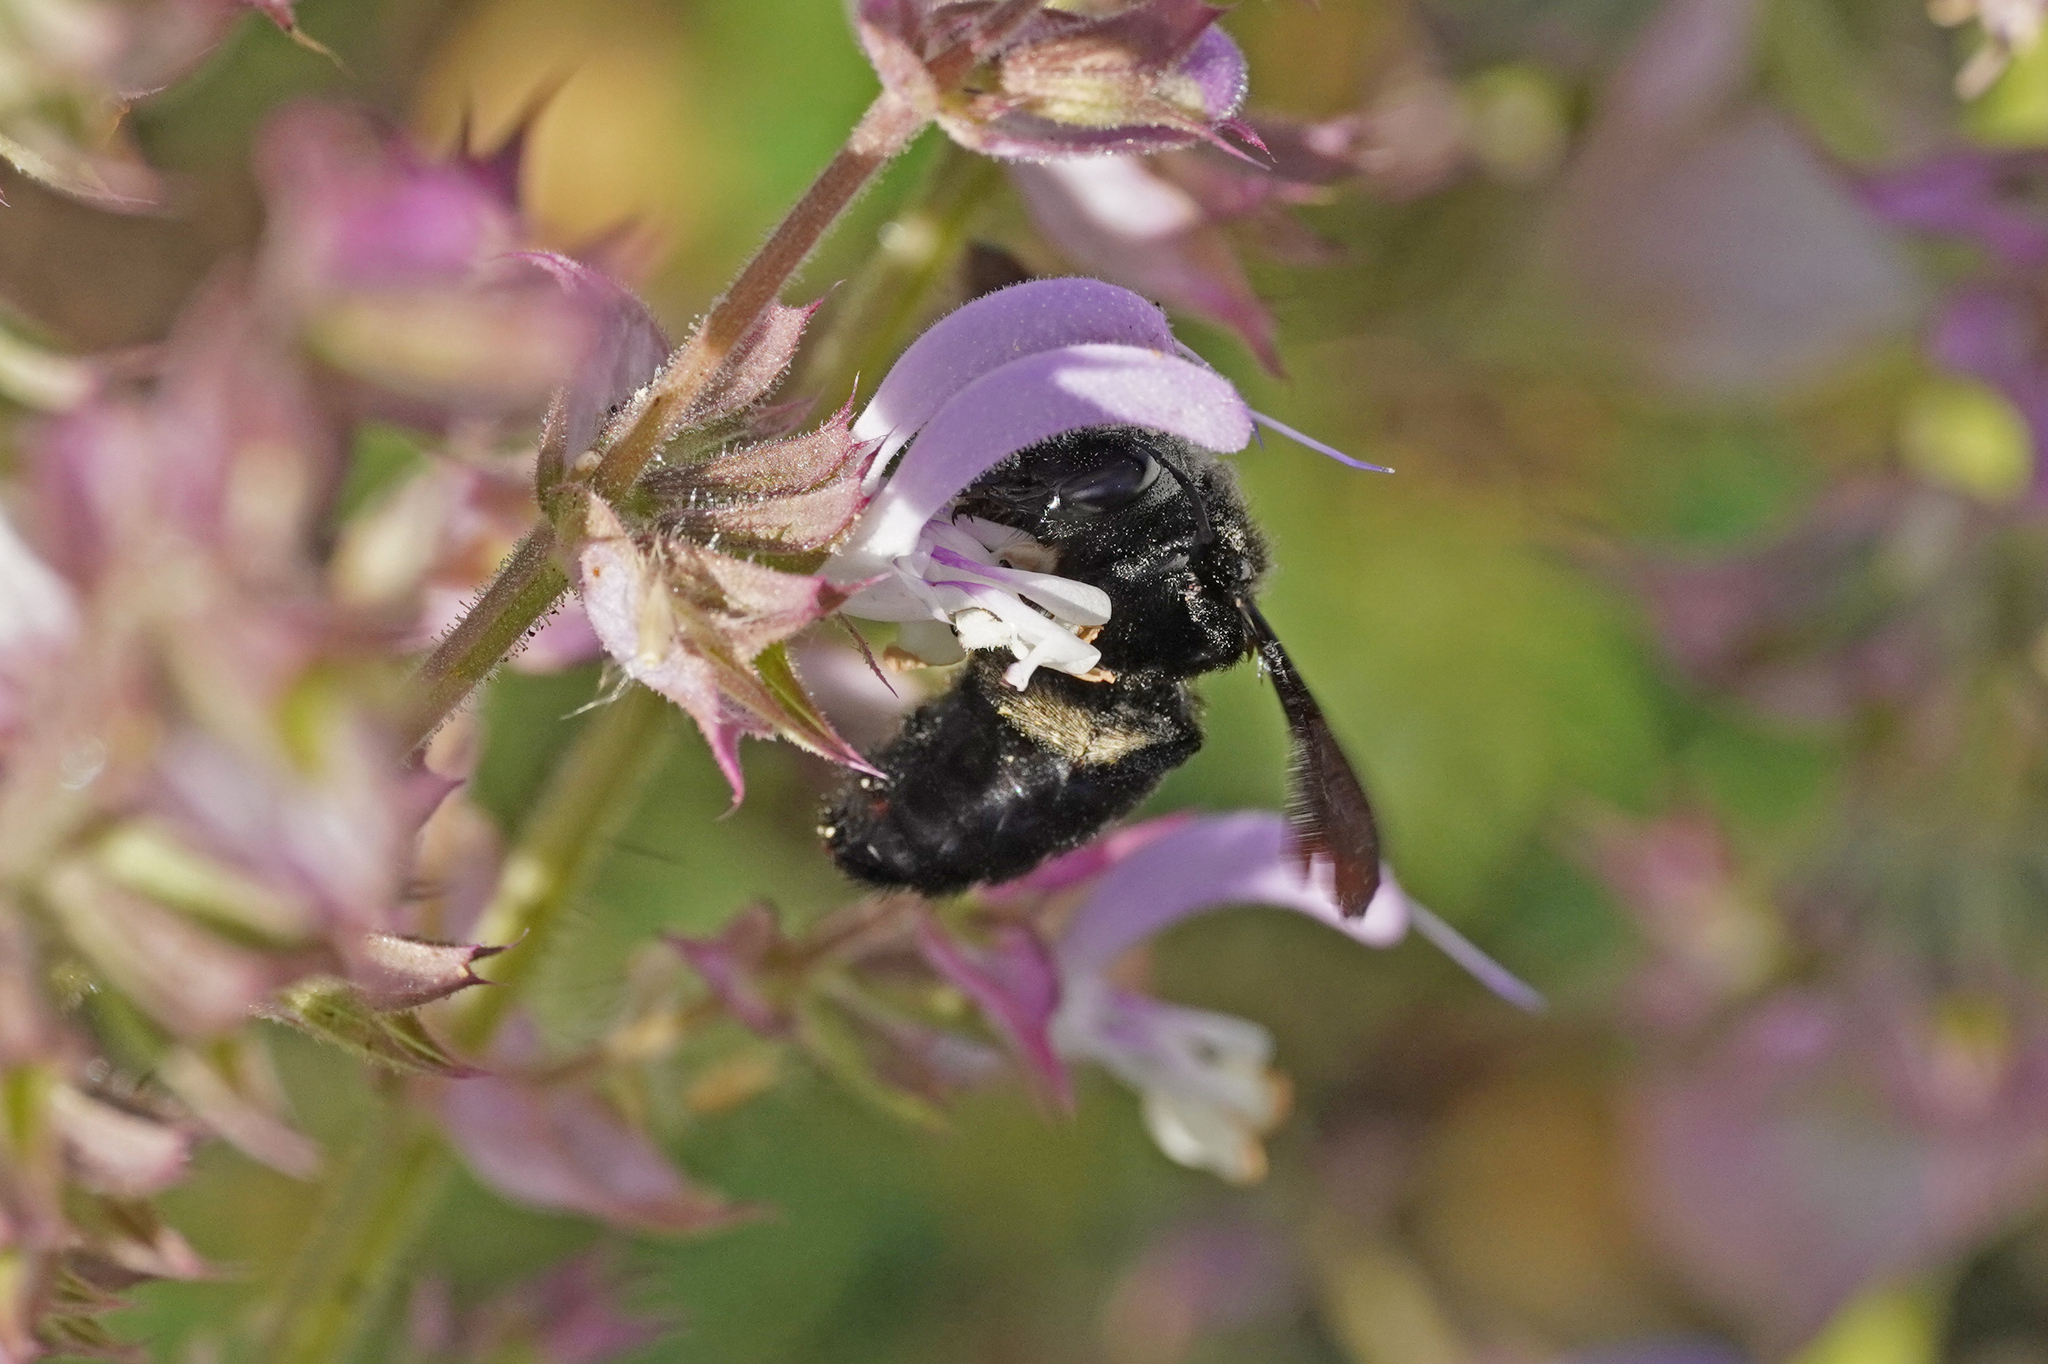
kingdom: Animalia
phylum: Arthropoda
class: Insecta
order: Hymenoptera
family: Apidae
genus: Xylocopa
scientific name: Xylocopa violacea
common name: Violet carpenter bee
